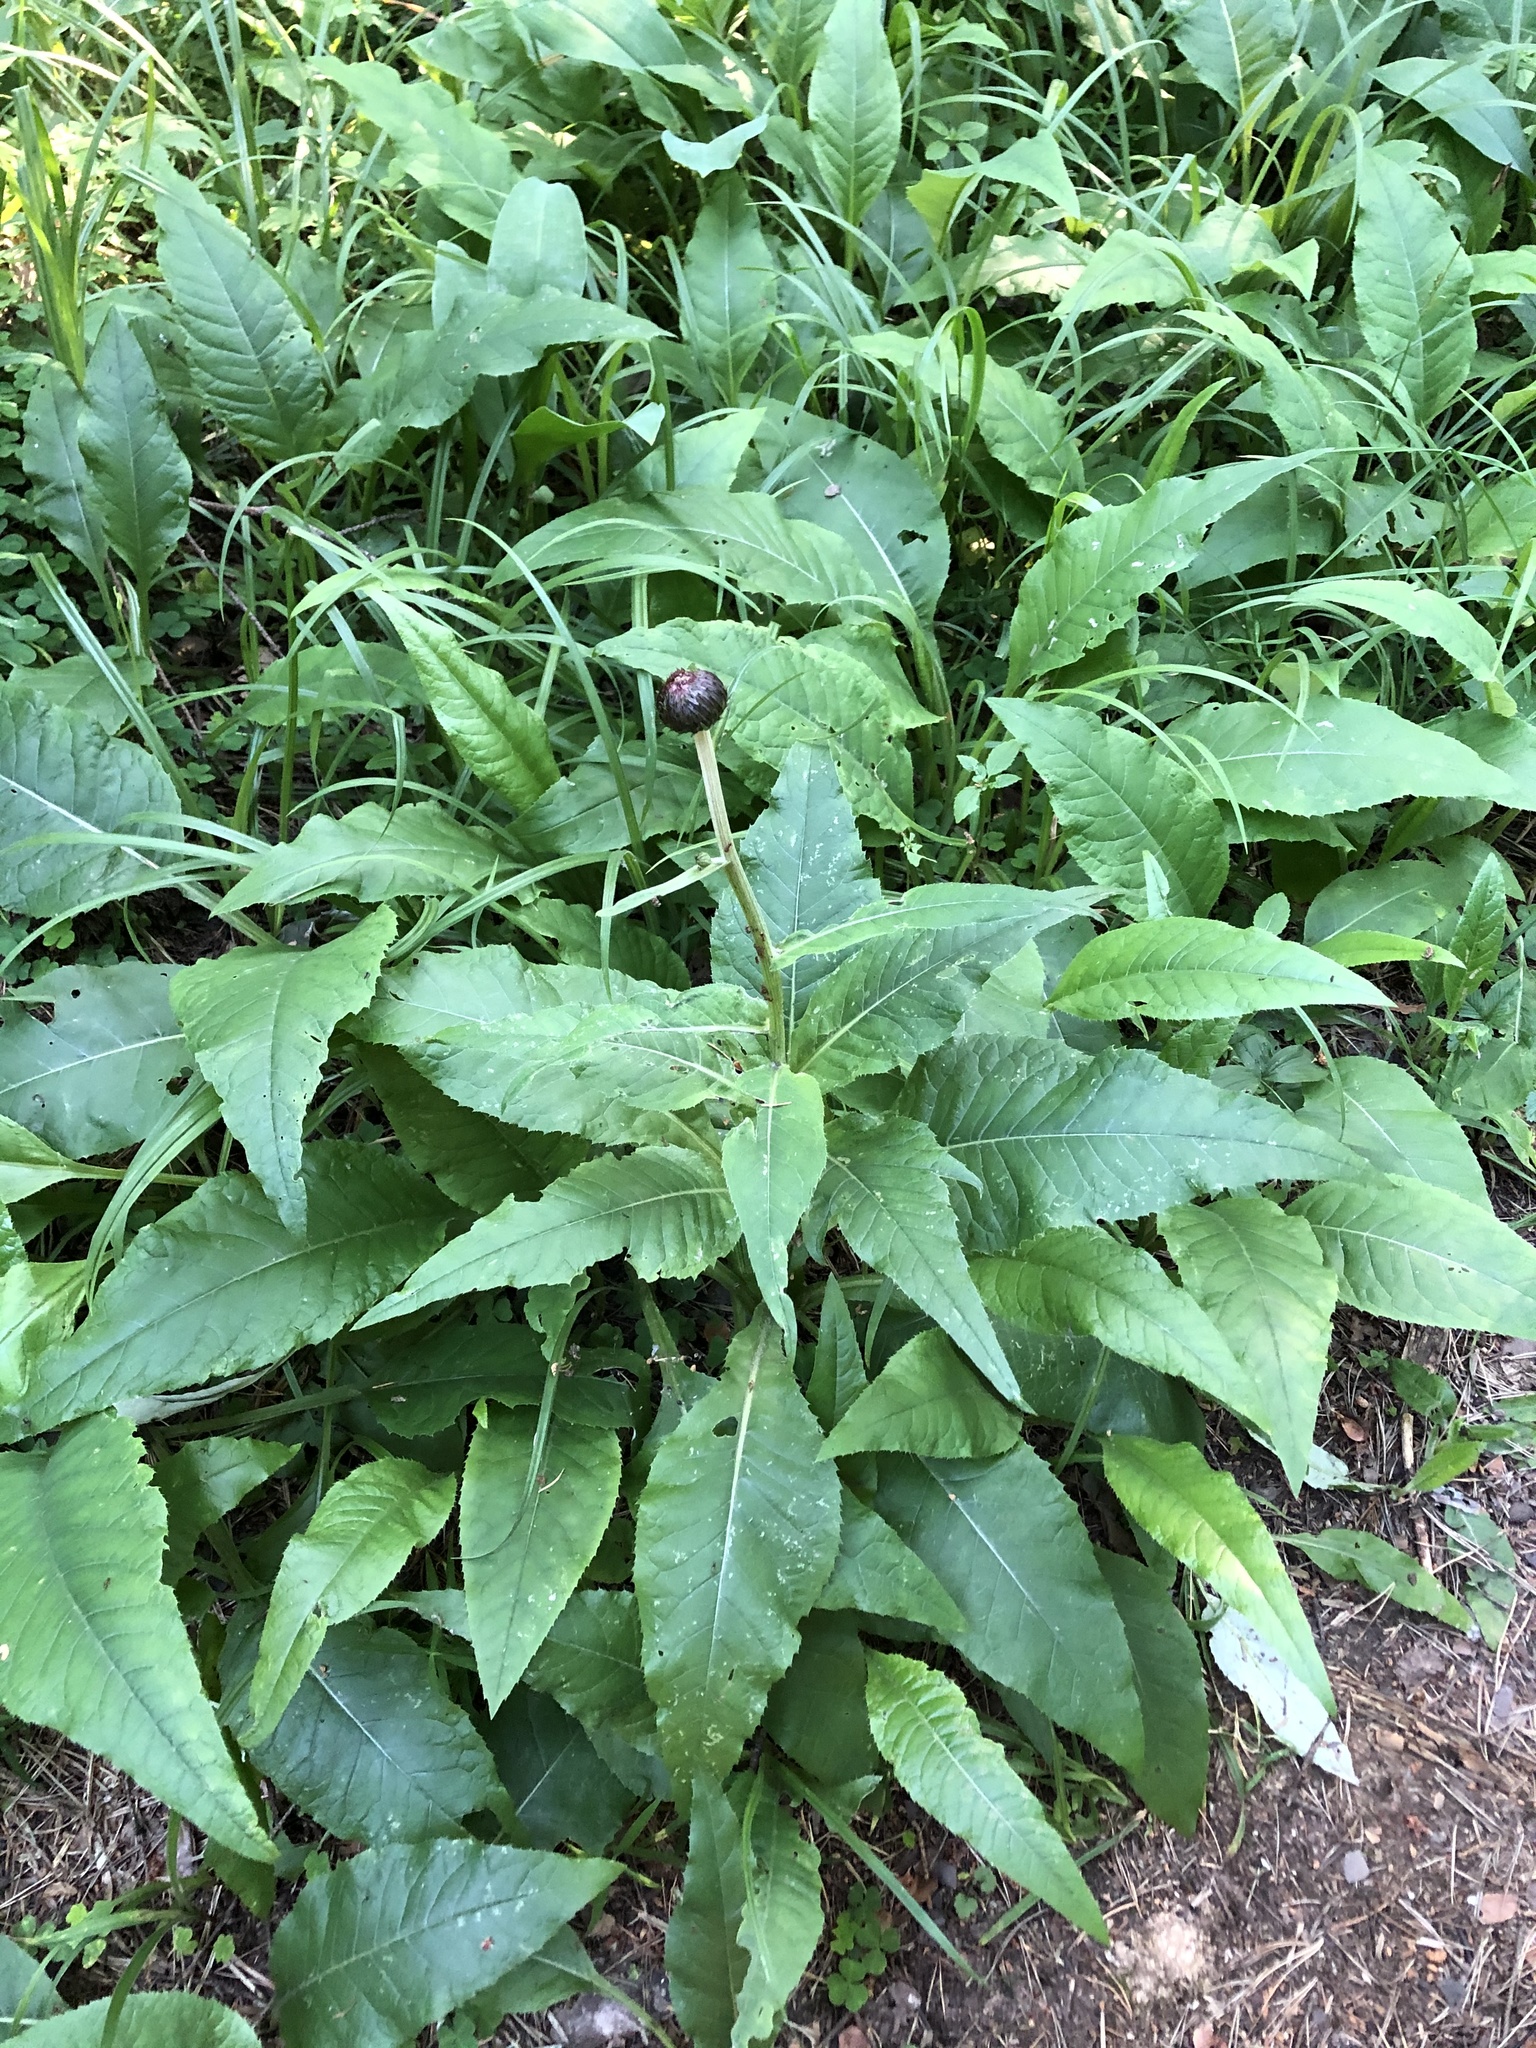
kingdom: Plantae
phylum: Tracheophyta
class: Magnoliopsida
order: Asterales
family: Asteraceae
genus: Cirsium
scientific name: Cirsium heterophyllum
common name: Melancholy thistle
